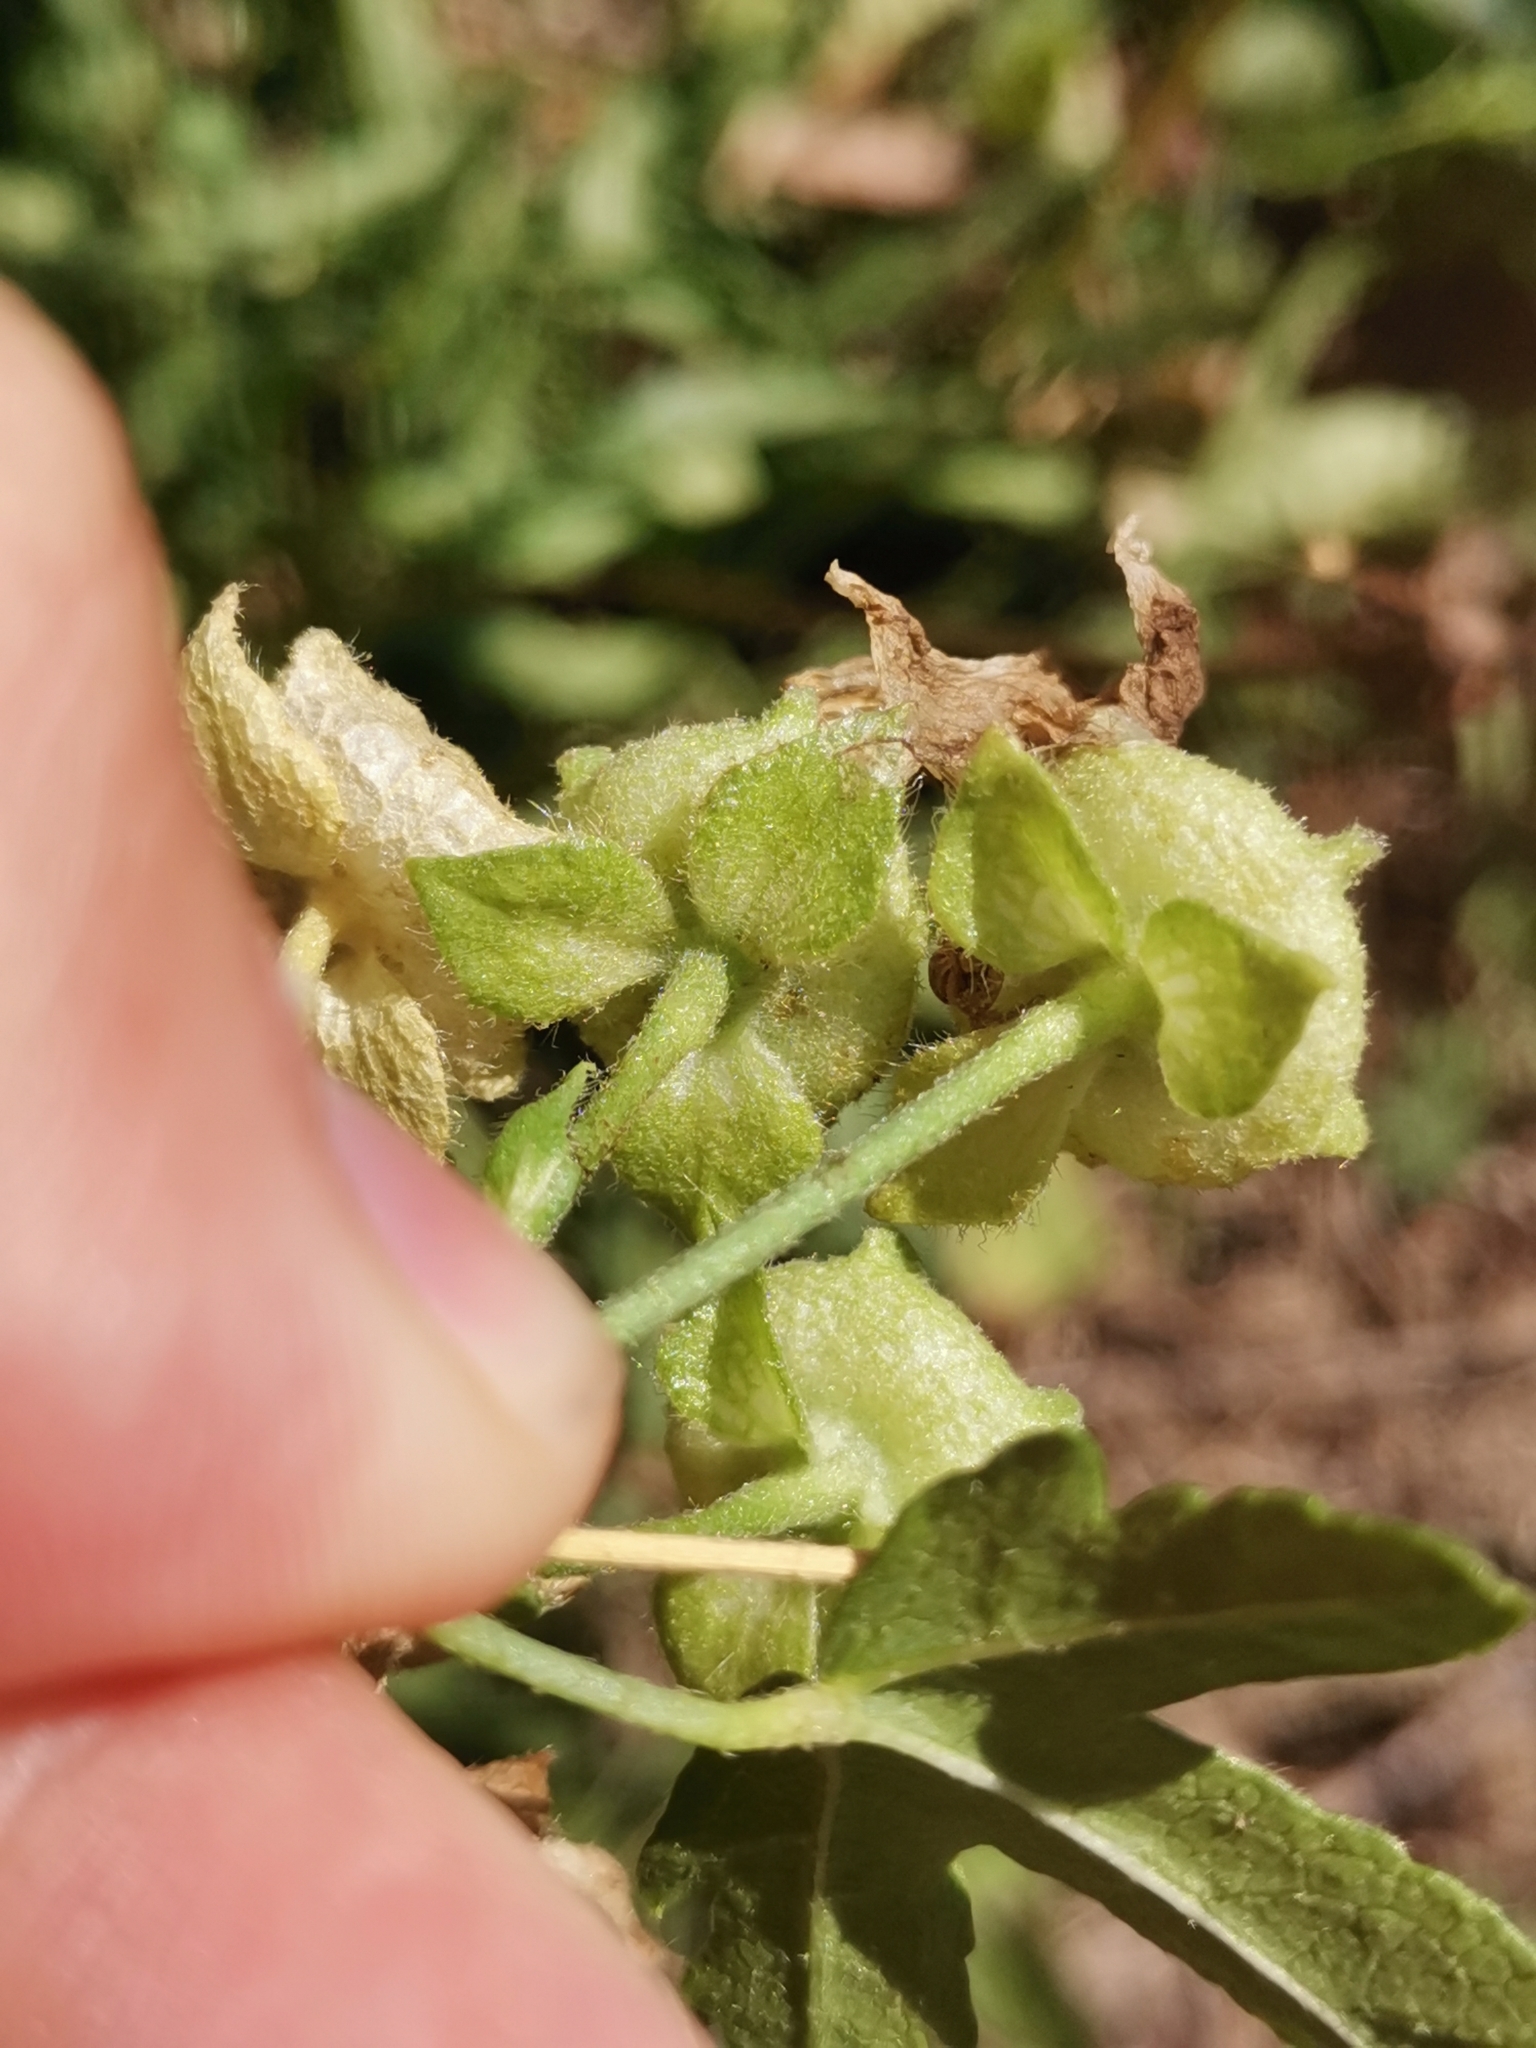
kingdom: Plantae
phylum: Tracheophyta
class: Magnoliopsida
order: Malvales
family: Malvaceae
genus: Malva
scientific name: Malva alcea
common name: Greater musk-mallow
